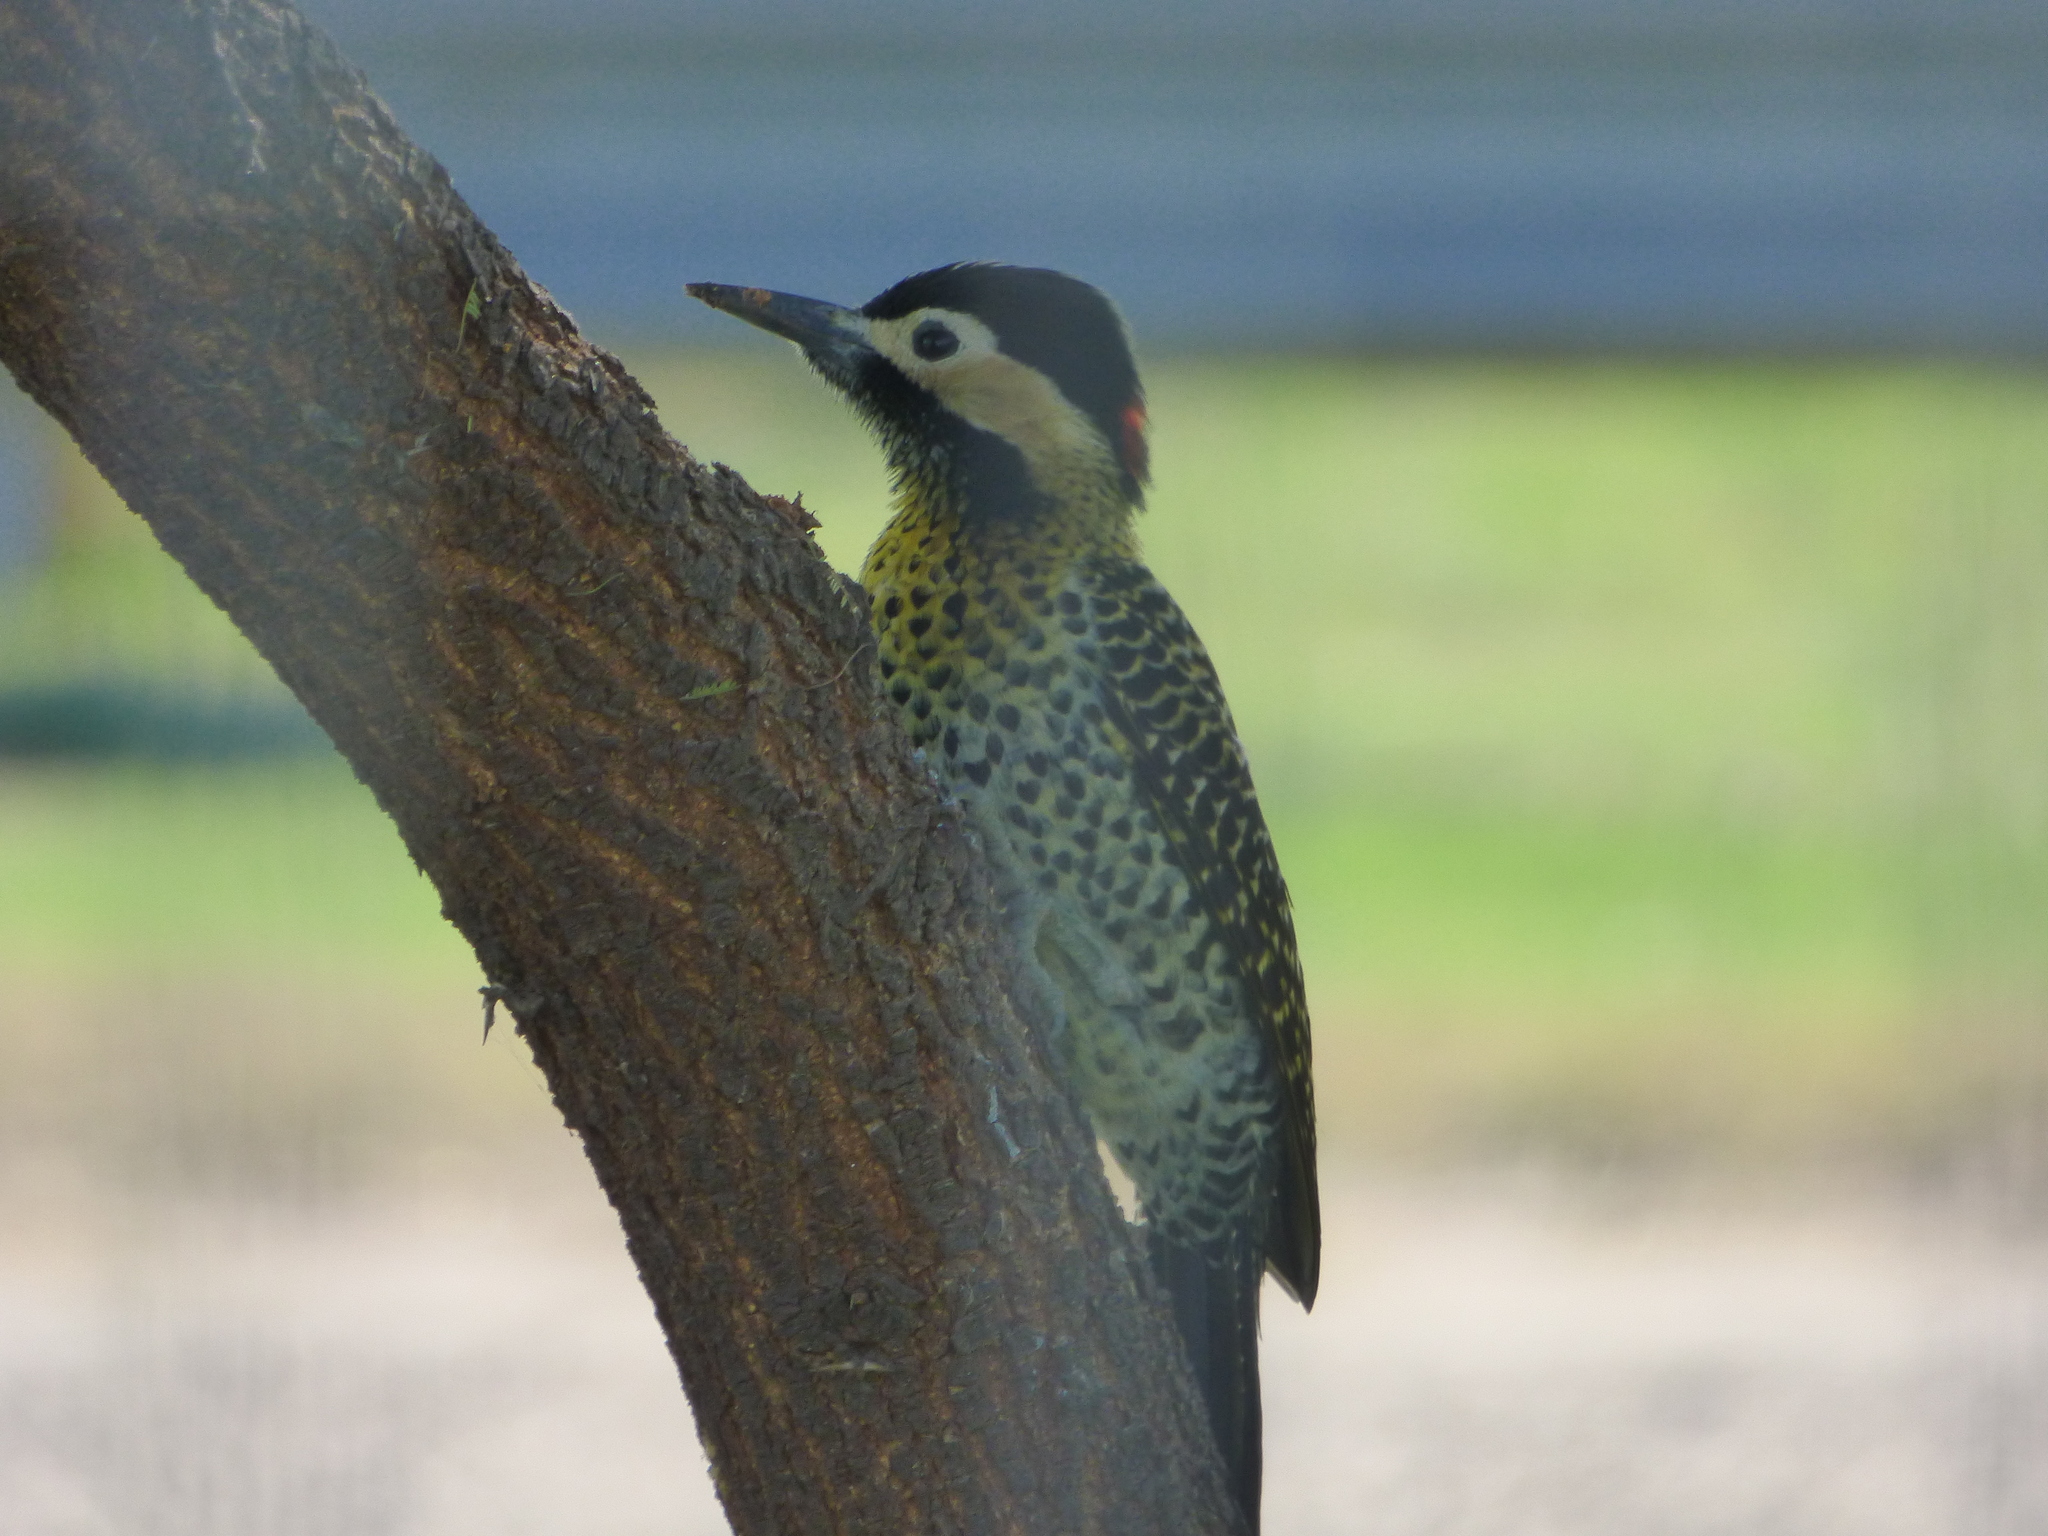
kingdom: Animalia
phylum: Chordata
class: Aves
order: Piciformes
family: Picidae
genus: Colaptes
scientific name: Colaptes melanochloros
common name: Green-barred woodpecker
